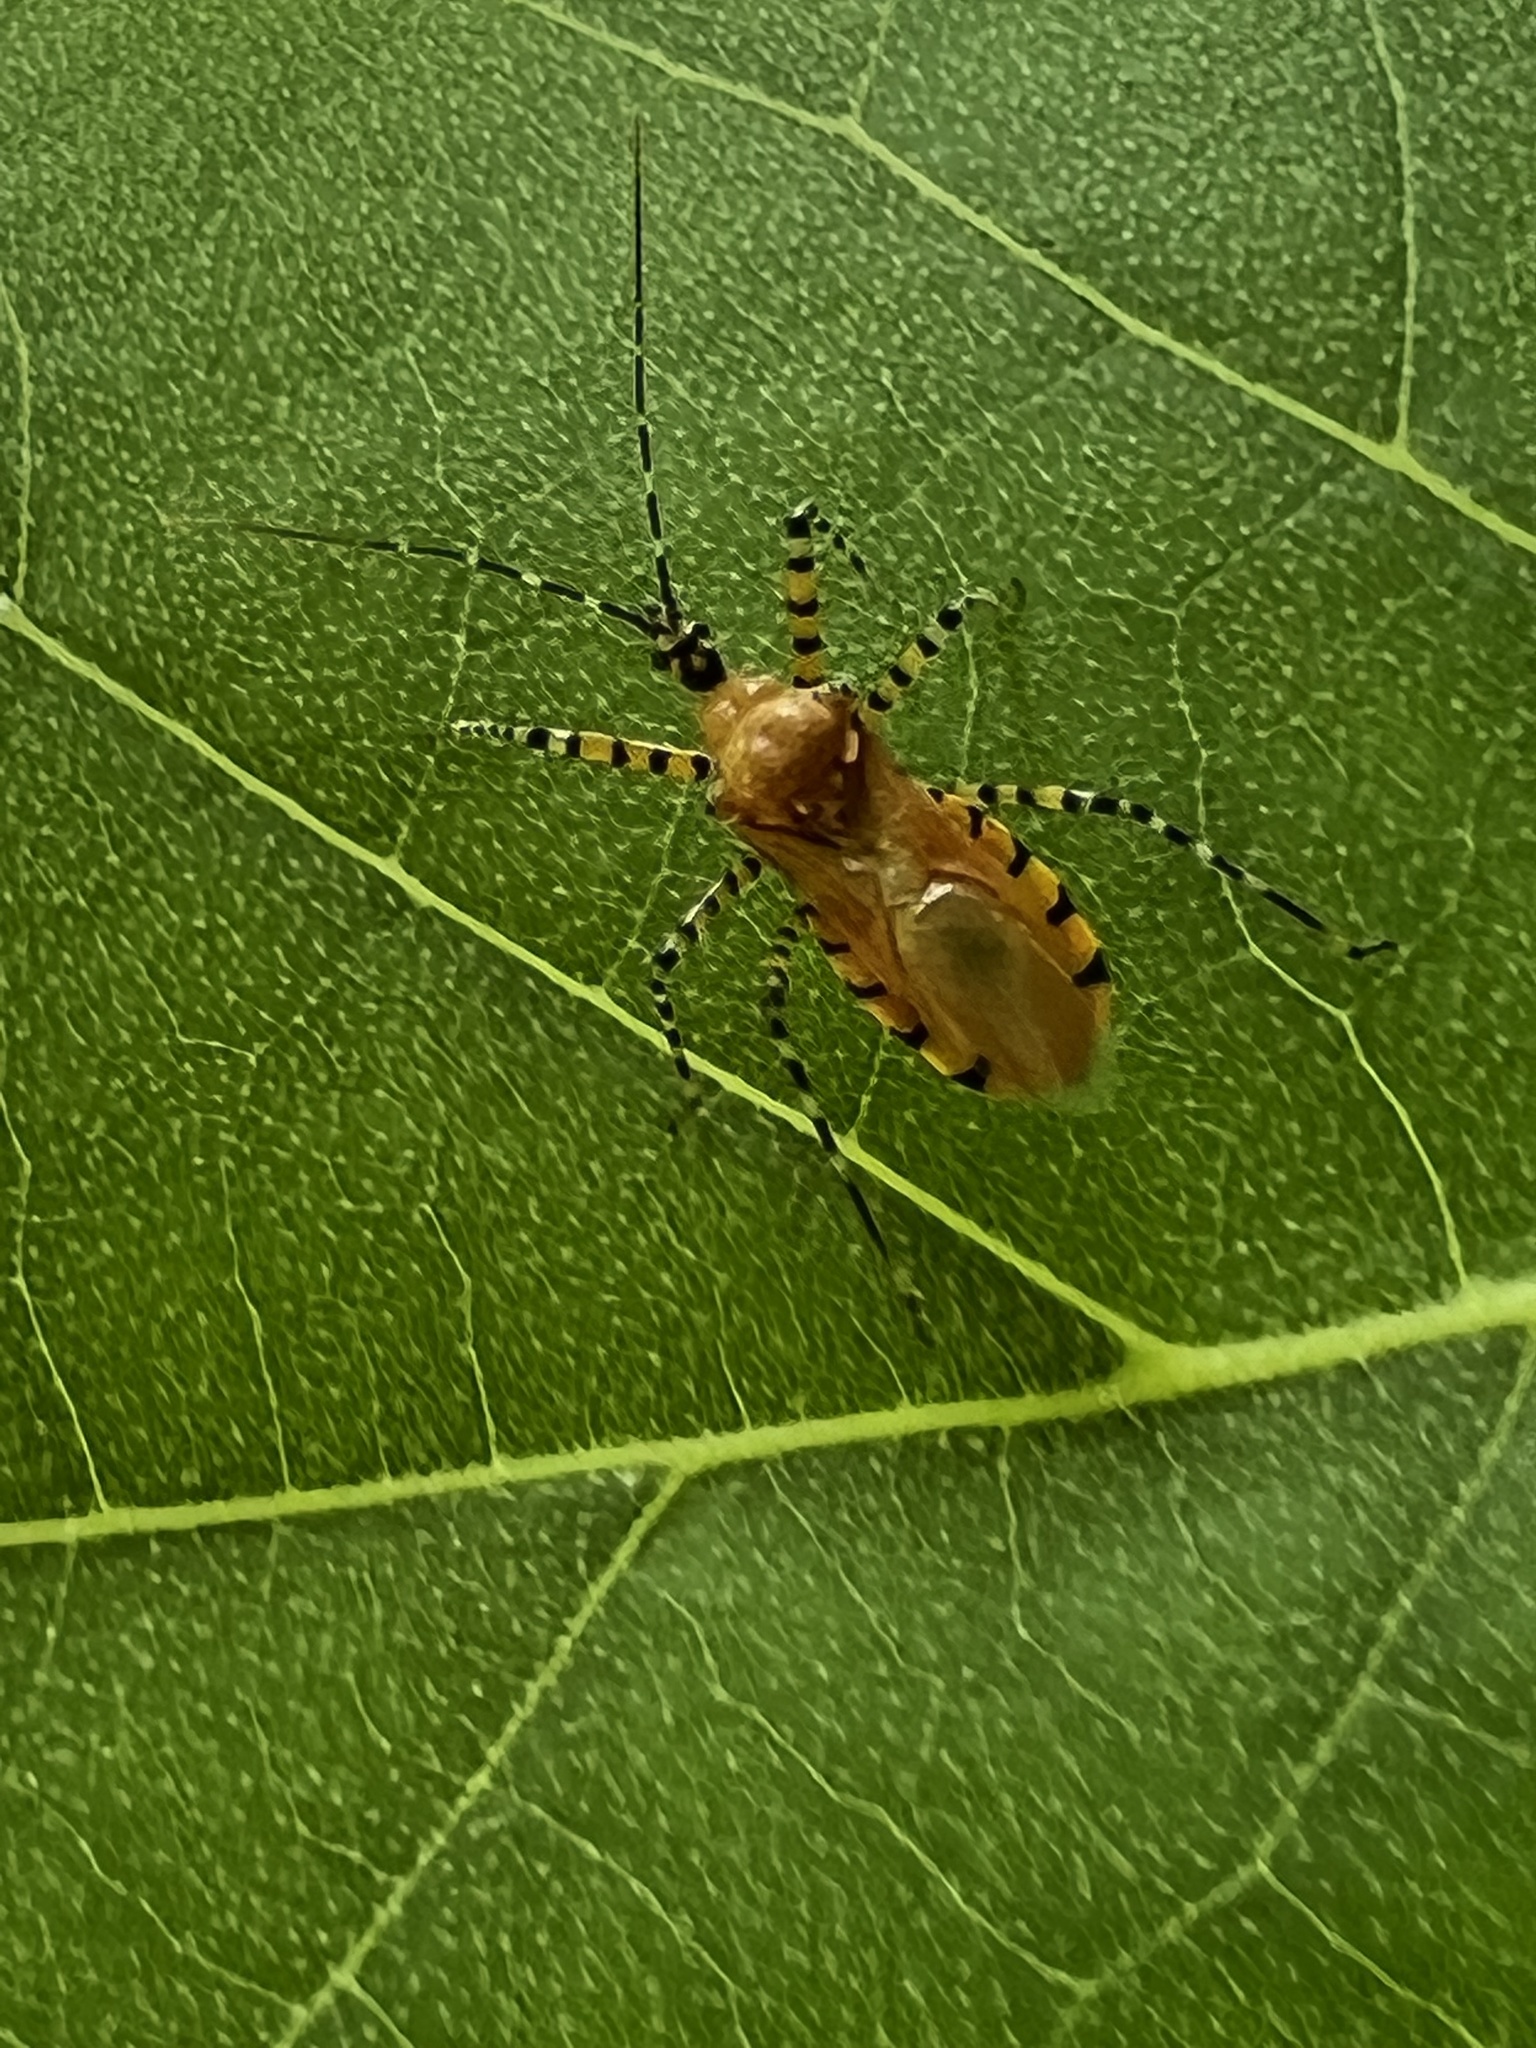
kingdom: Animalia
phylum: Arthropoda
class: Insecta
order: Hemiptera
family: Reduviidae
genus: Pselliopus
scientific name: Pselliopus barberi
